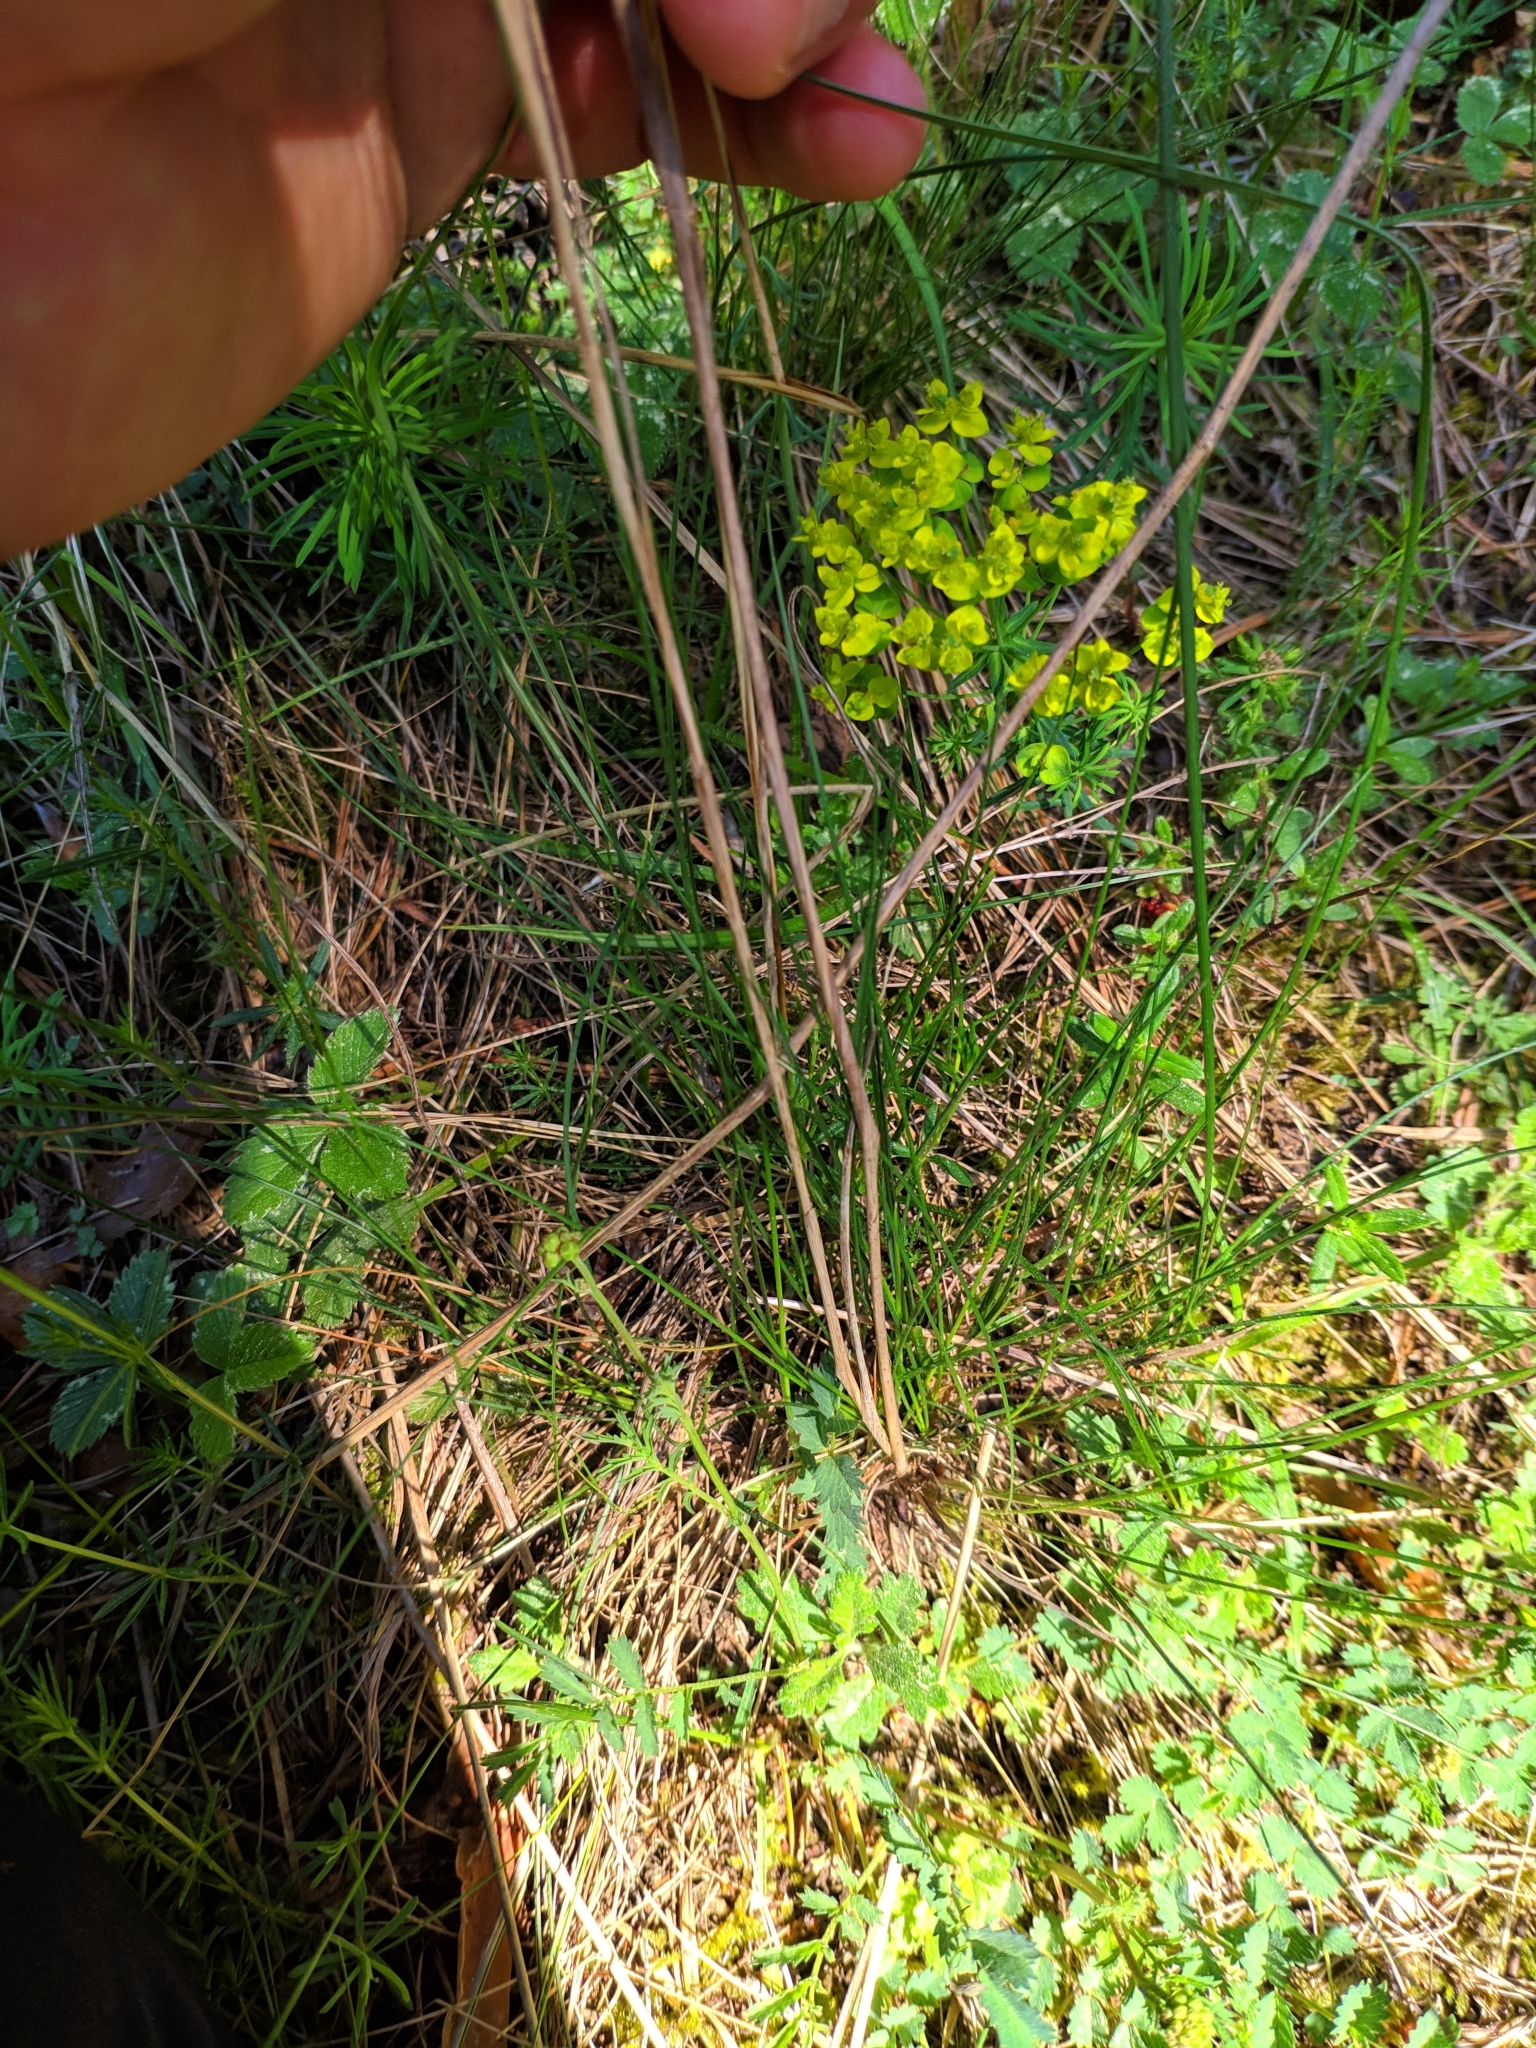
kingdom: Plantae
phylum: Tracheophyta
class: Liliopsida
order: Poales
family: Poaceae
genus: Stipa
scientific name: Stipa capillata
